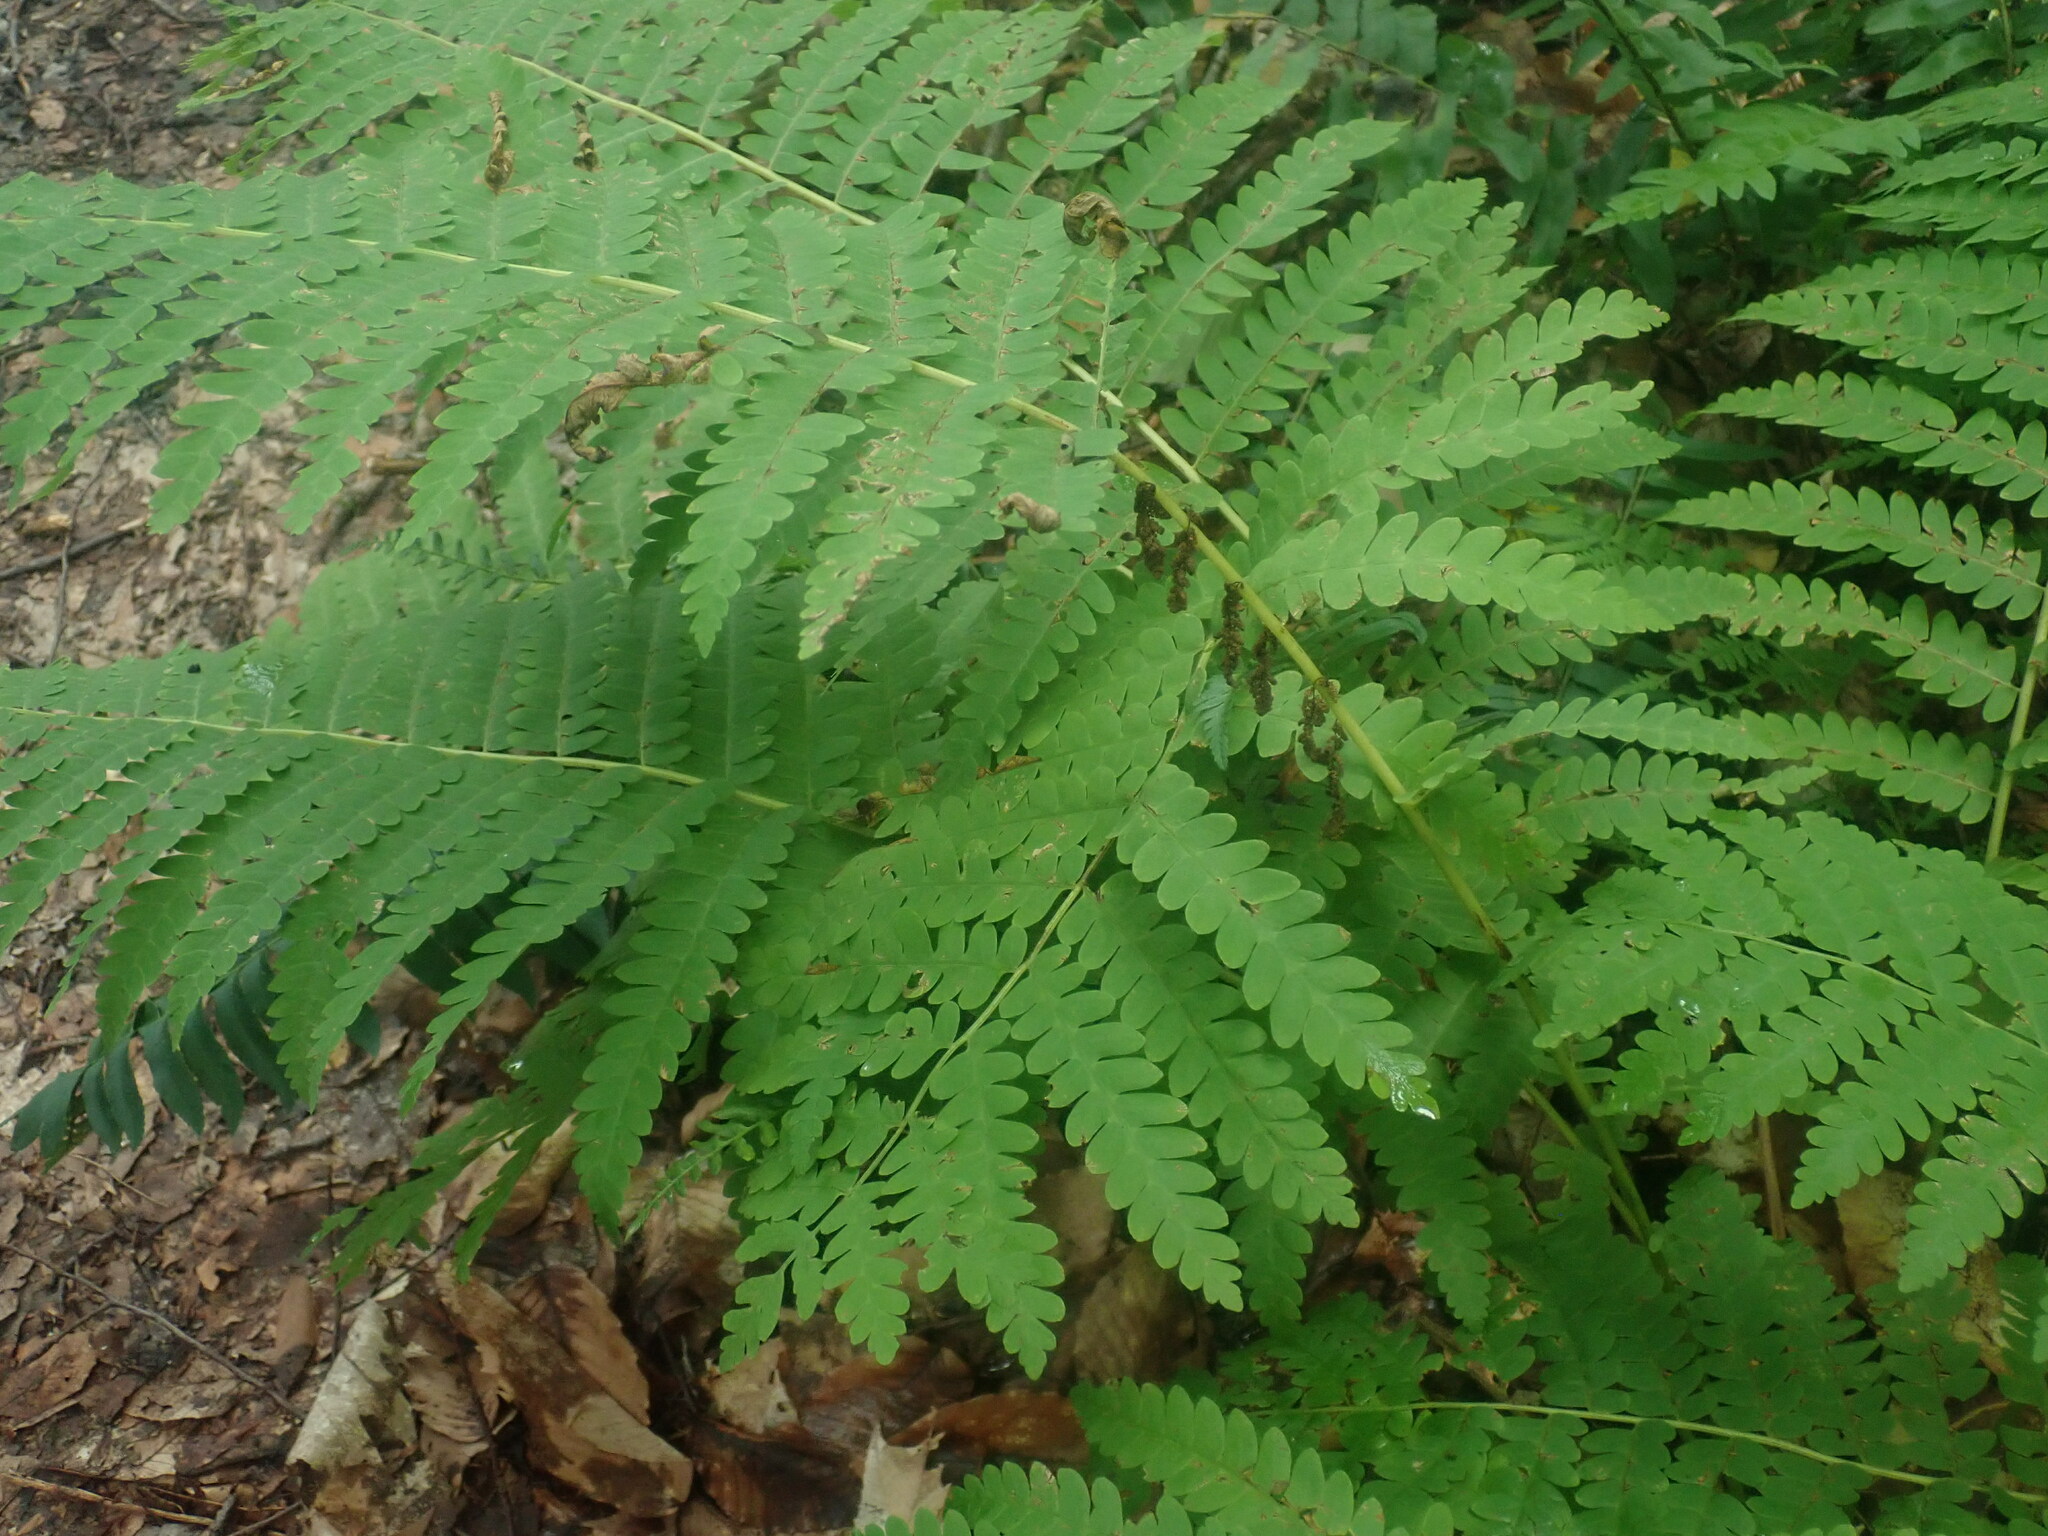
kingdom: Plantae
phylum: Tracheophyta
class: Polypodiopsida
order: Osmundales
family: Osmundaceae
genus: Claytosmunda
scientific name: Claytosmunda claytoniana
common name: Clayton's fern
